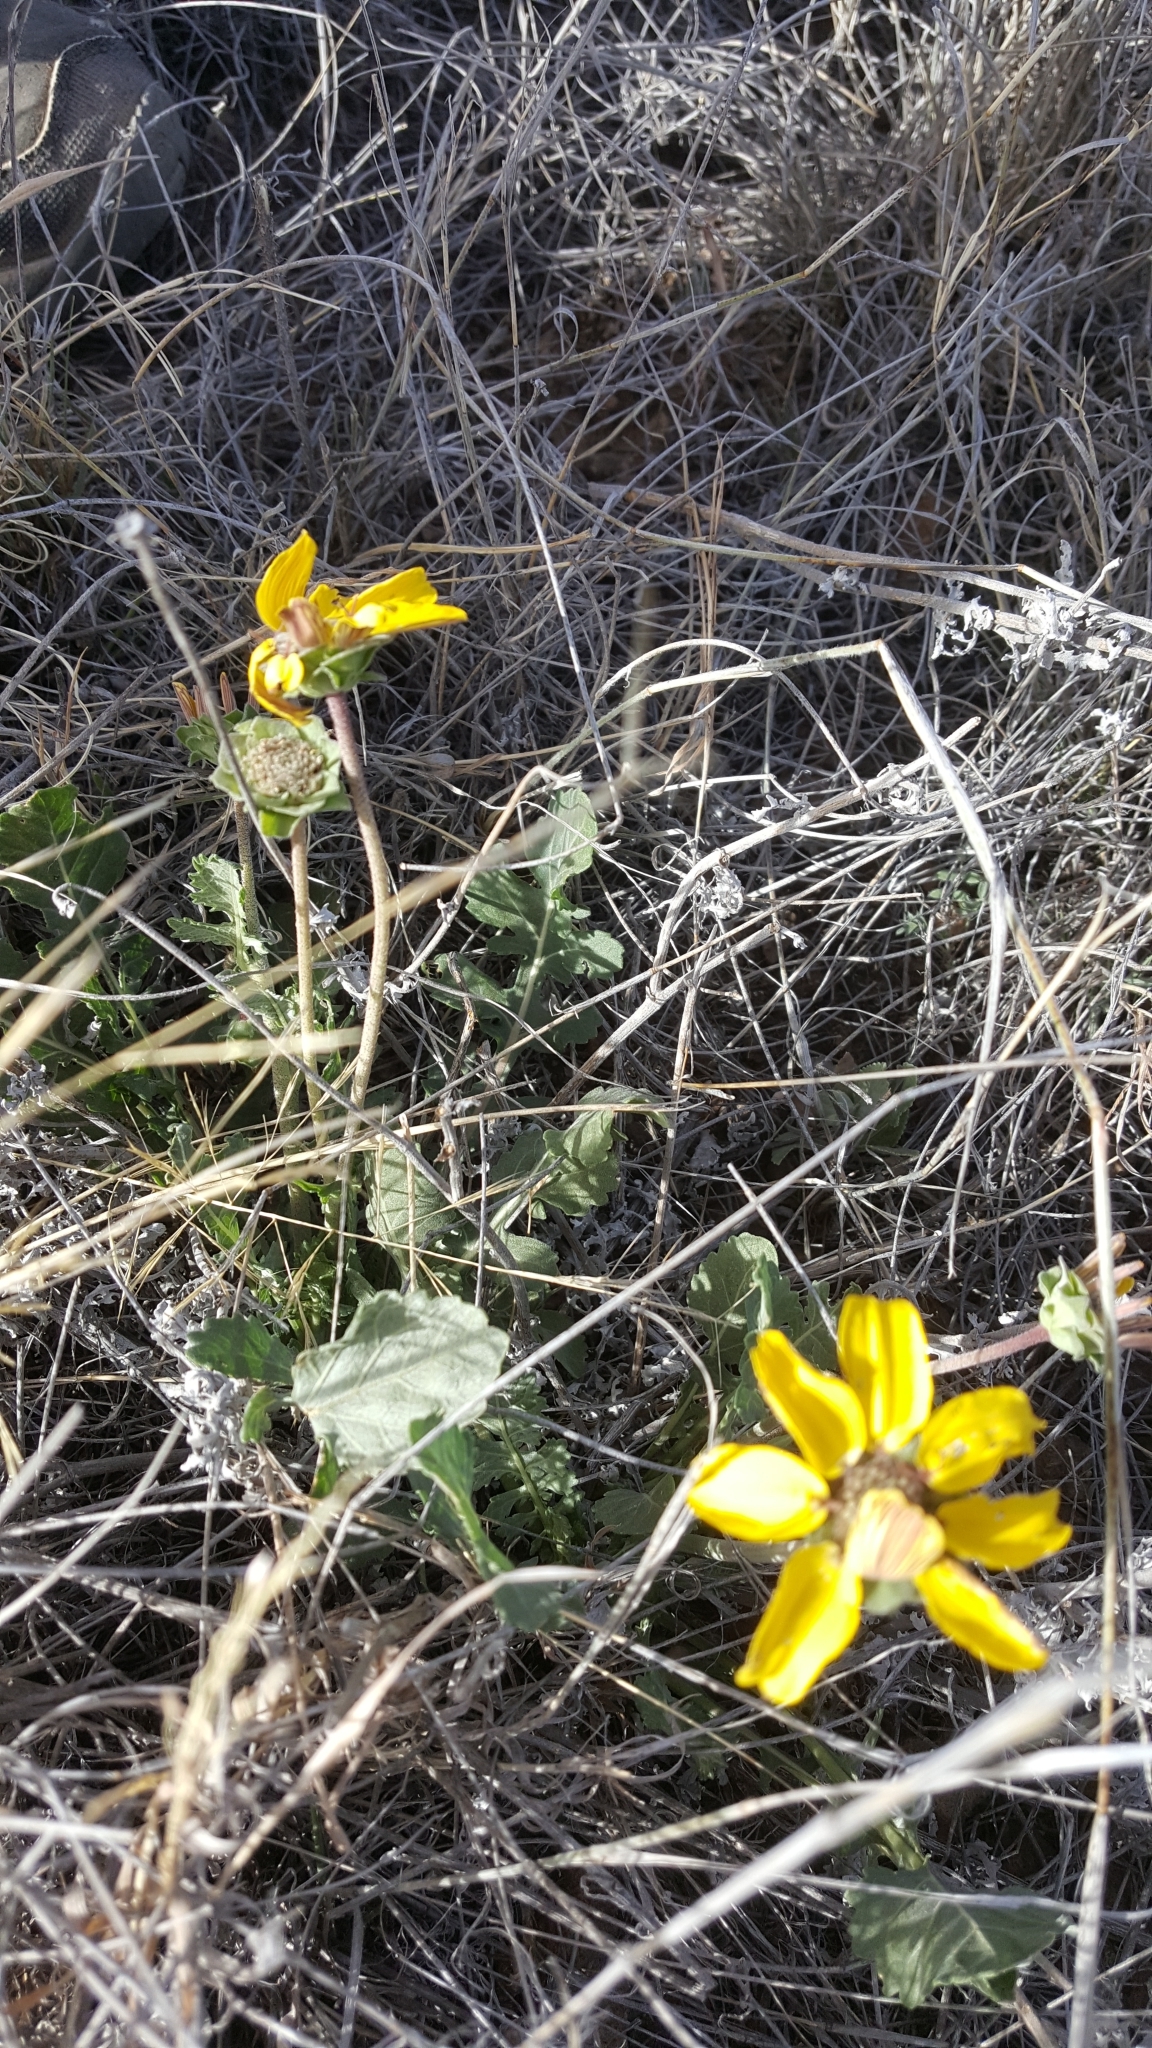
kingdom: Plantae
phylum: Tracheophyta
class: Magnoliopsida
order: Asterales
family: Asteraceae
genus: Berlandiera
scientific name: Berlandiera lyrata
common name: Chocolate-flower
